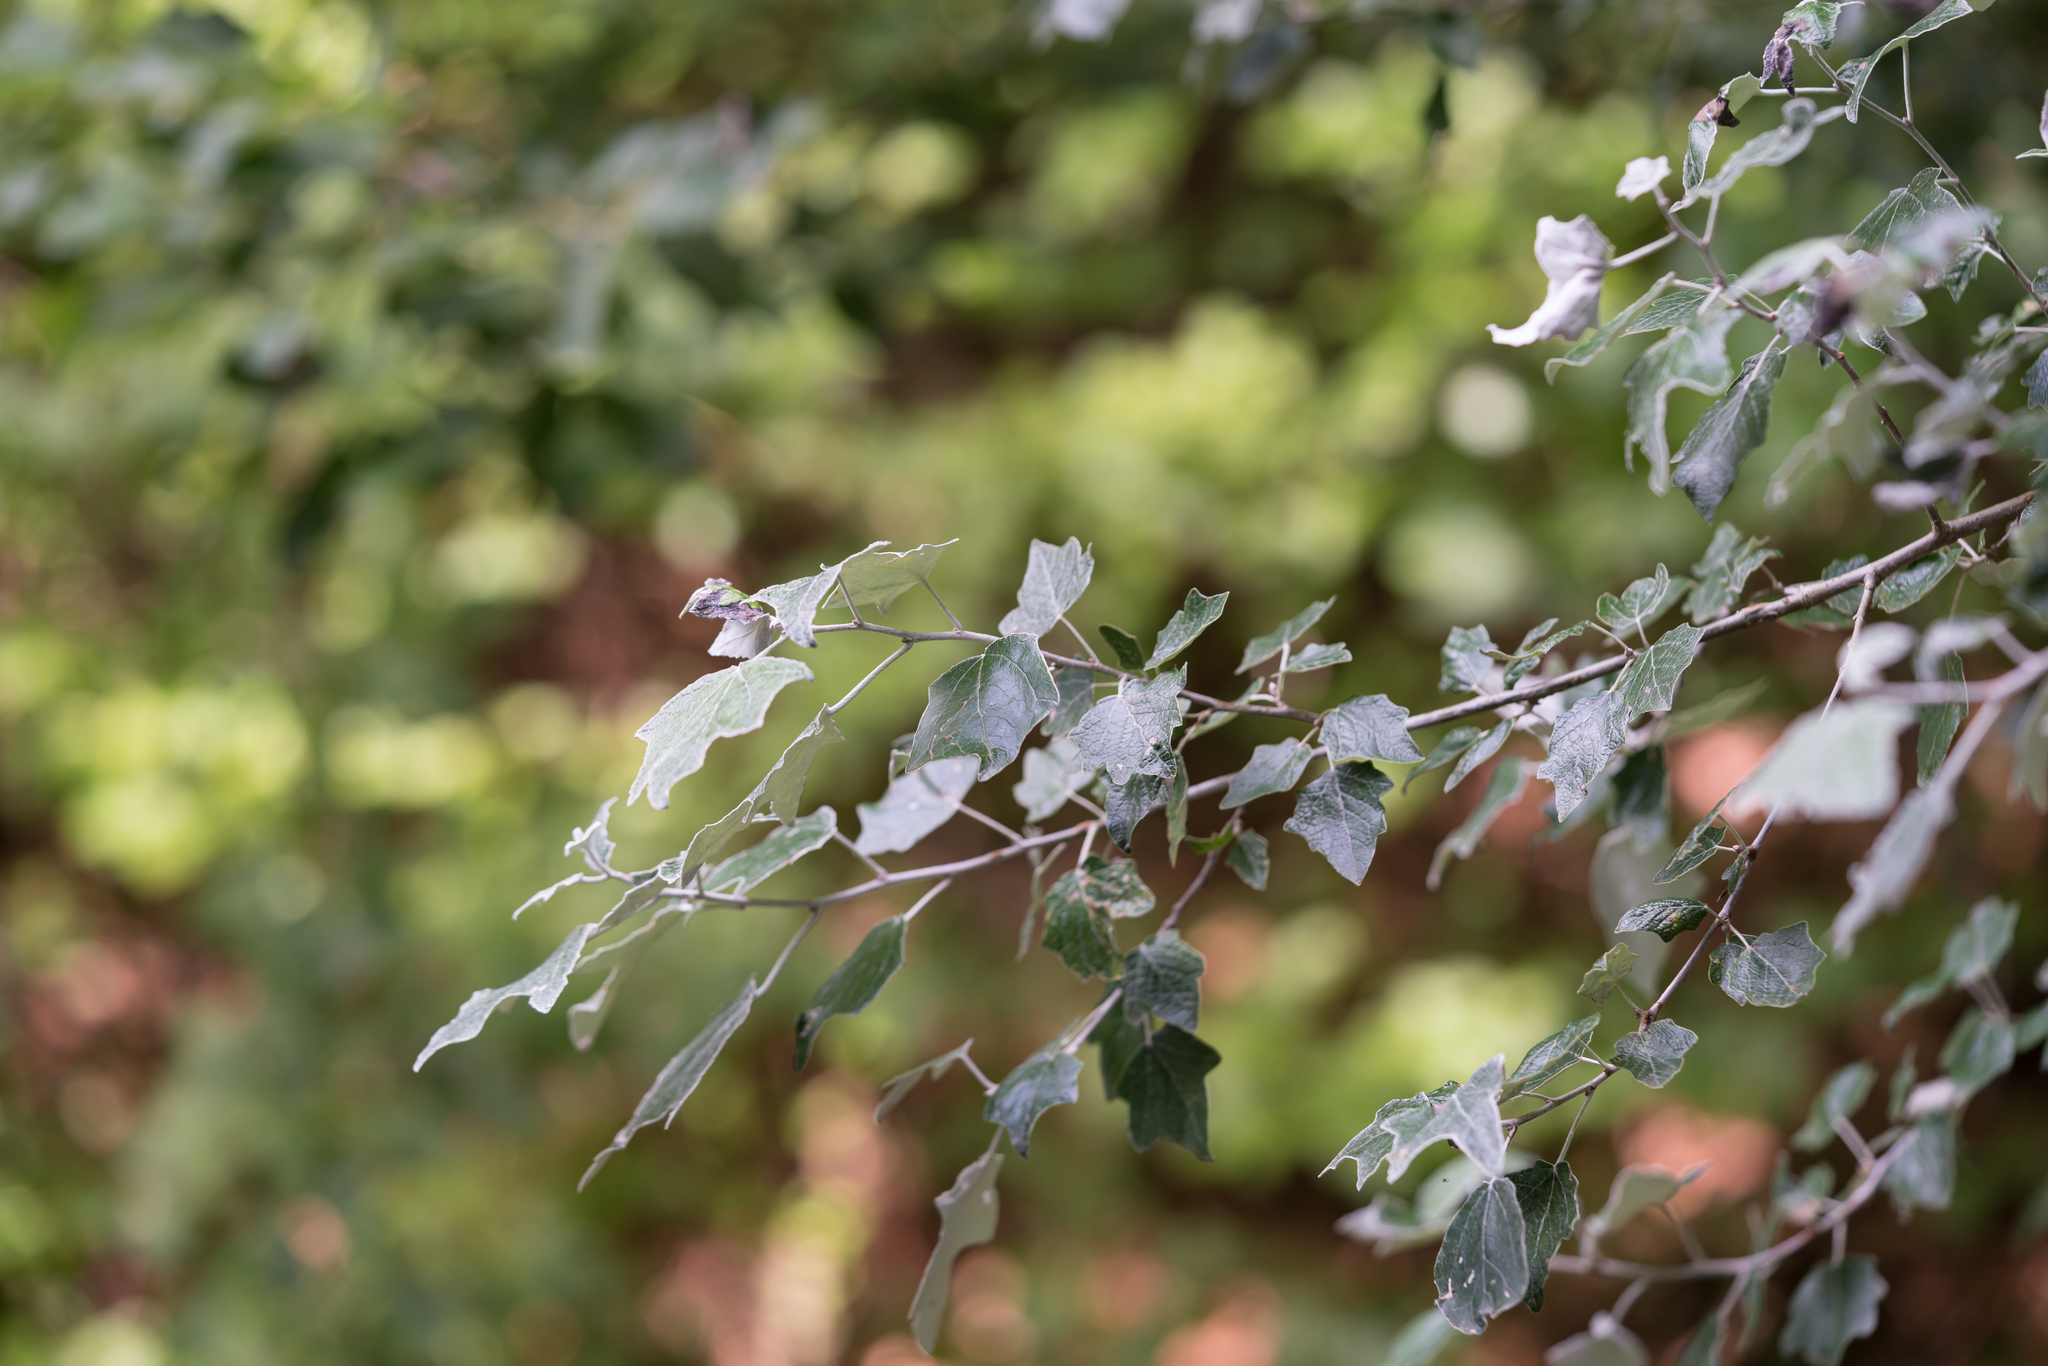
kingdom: Plantae
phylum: Tracheophyta
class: Magnoliopsida
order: Malpighiales
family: Salicaceae
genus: Populus
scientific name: Populus alba
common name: White poplar
